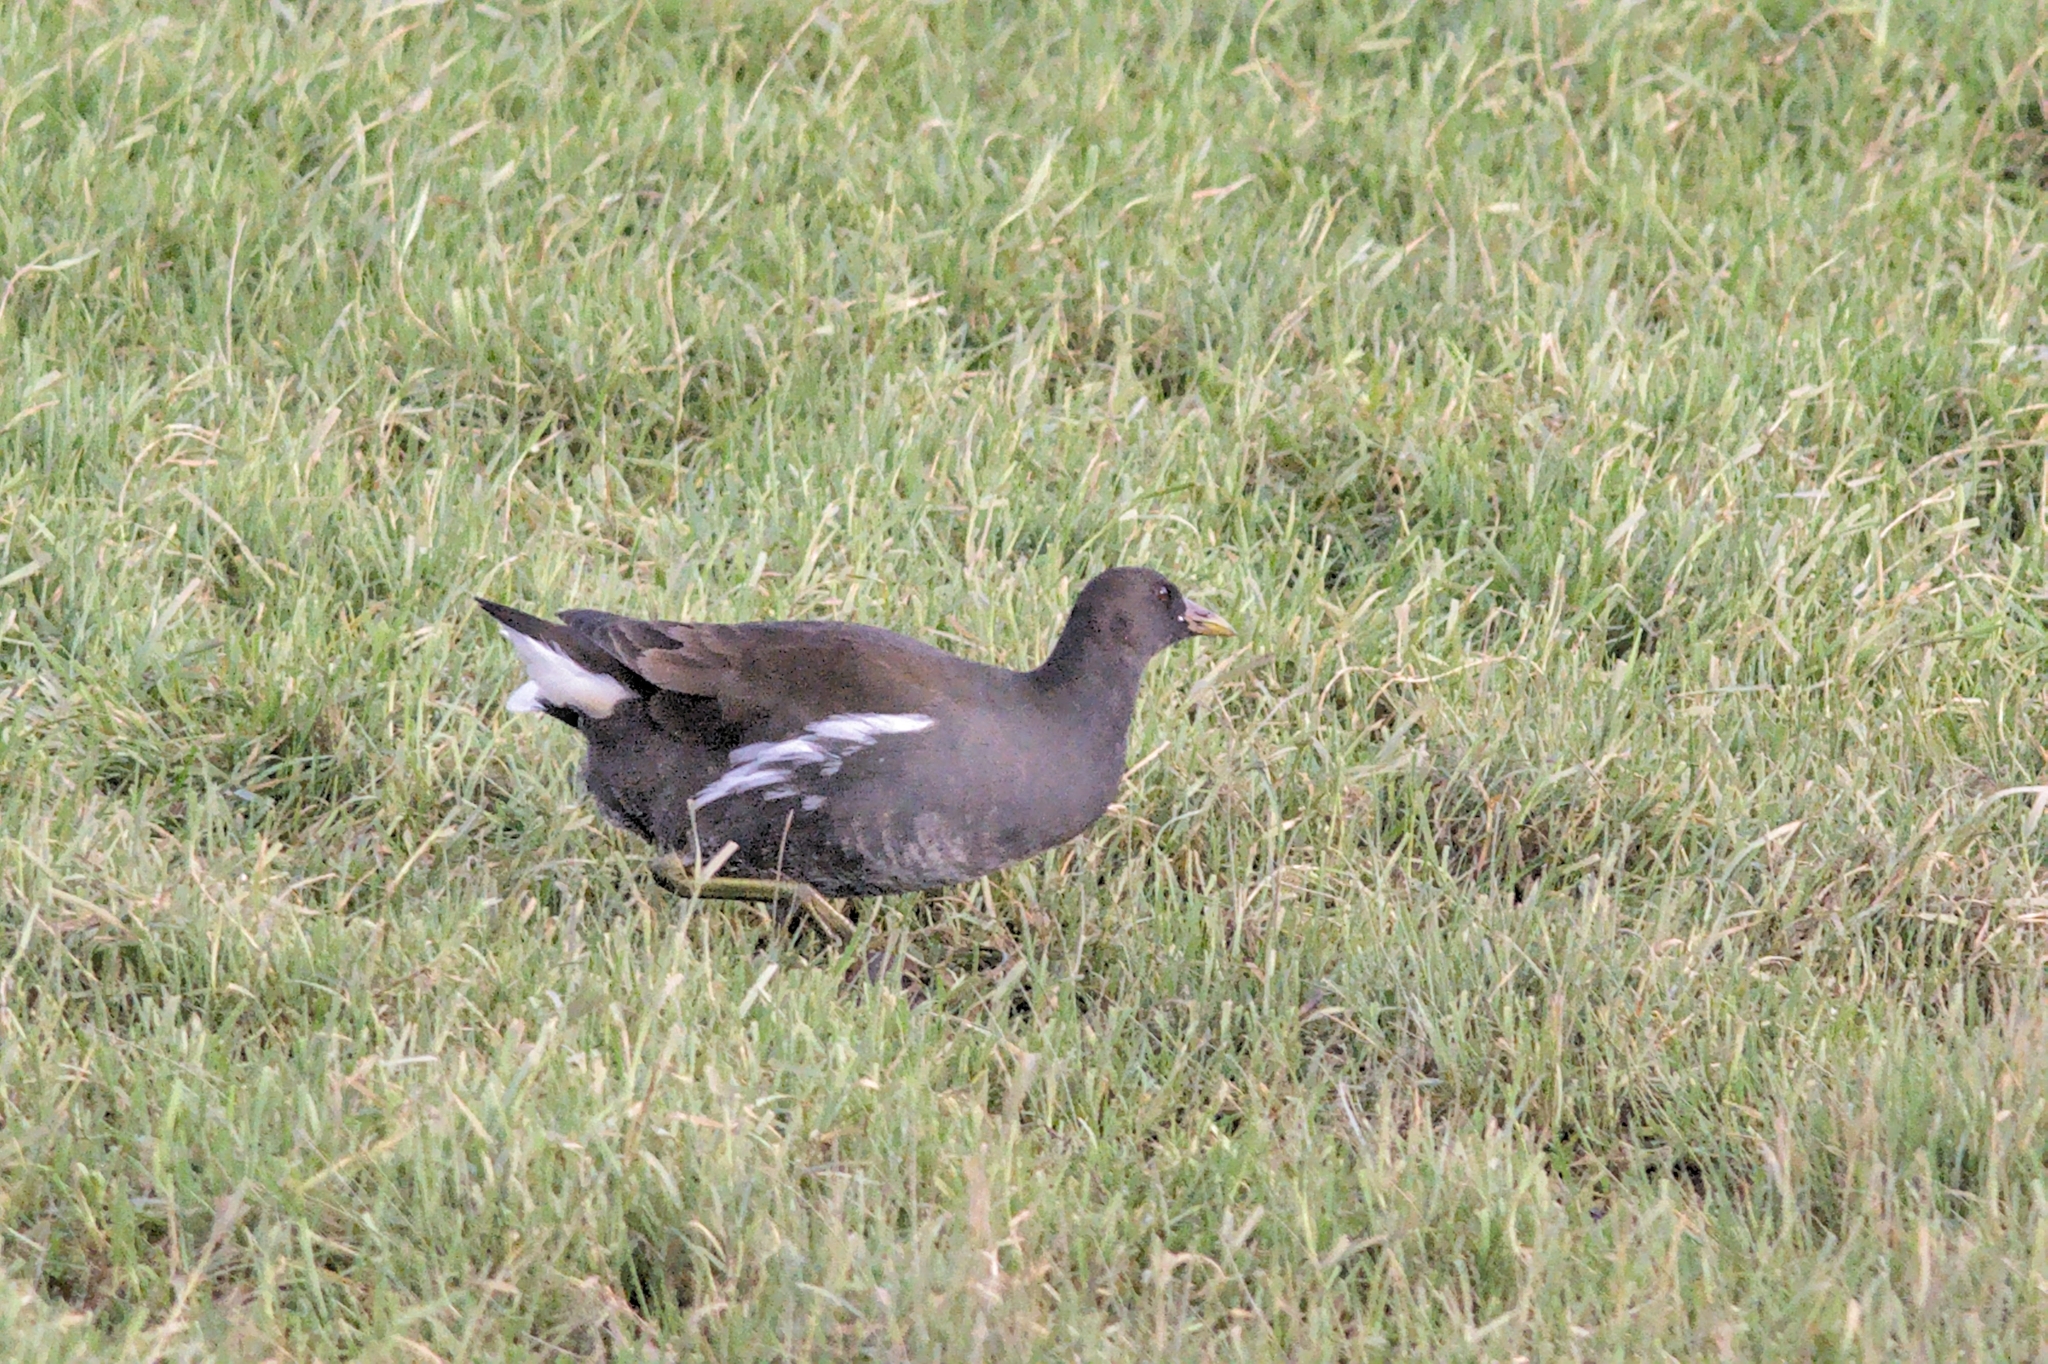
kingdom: Animalia
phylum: Chordata
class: Aves
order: Gruiformes
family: Rallidae
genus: Gallinula
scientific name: Gallinula chloropus
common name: Common moorhen
